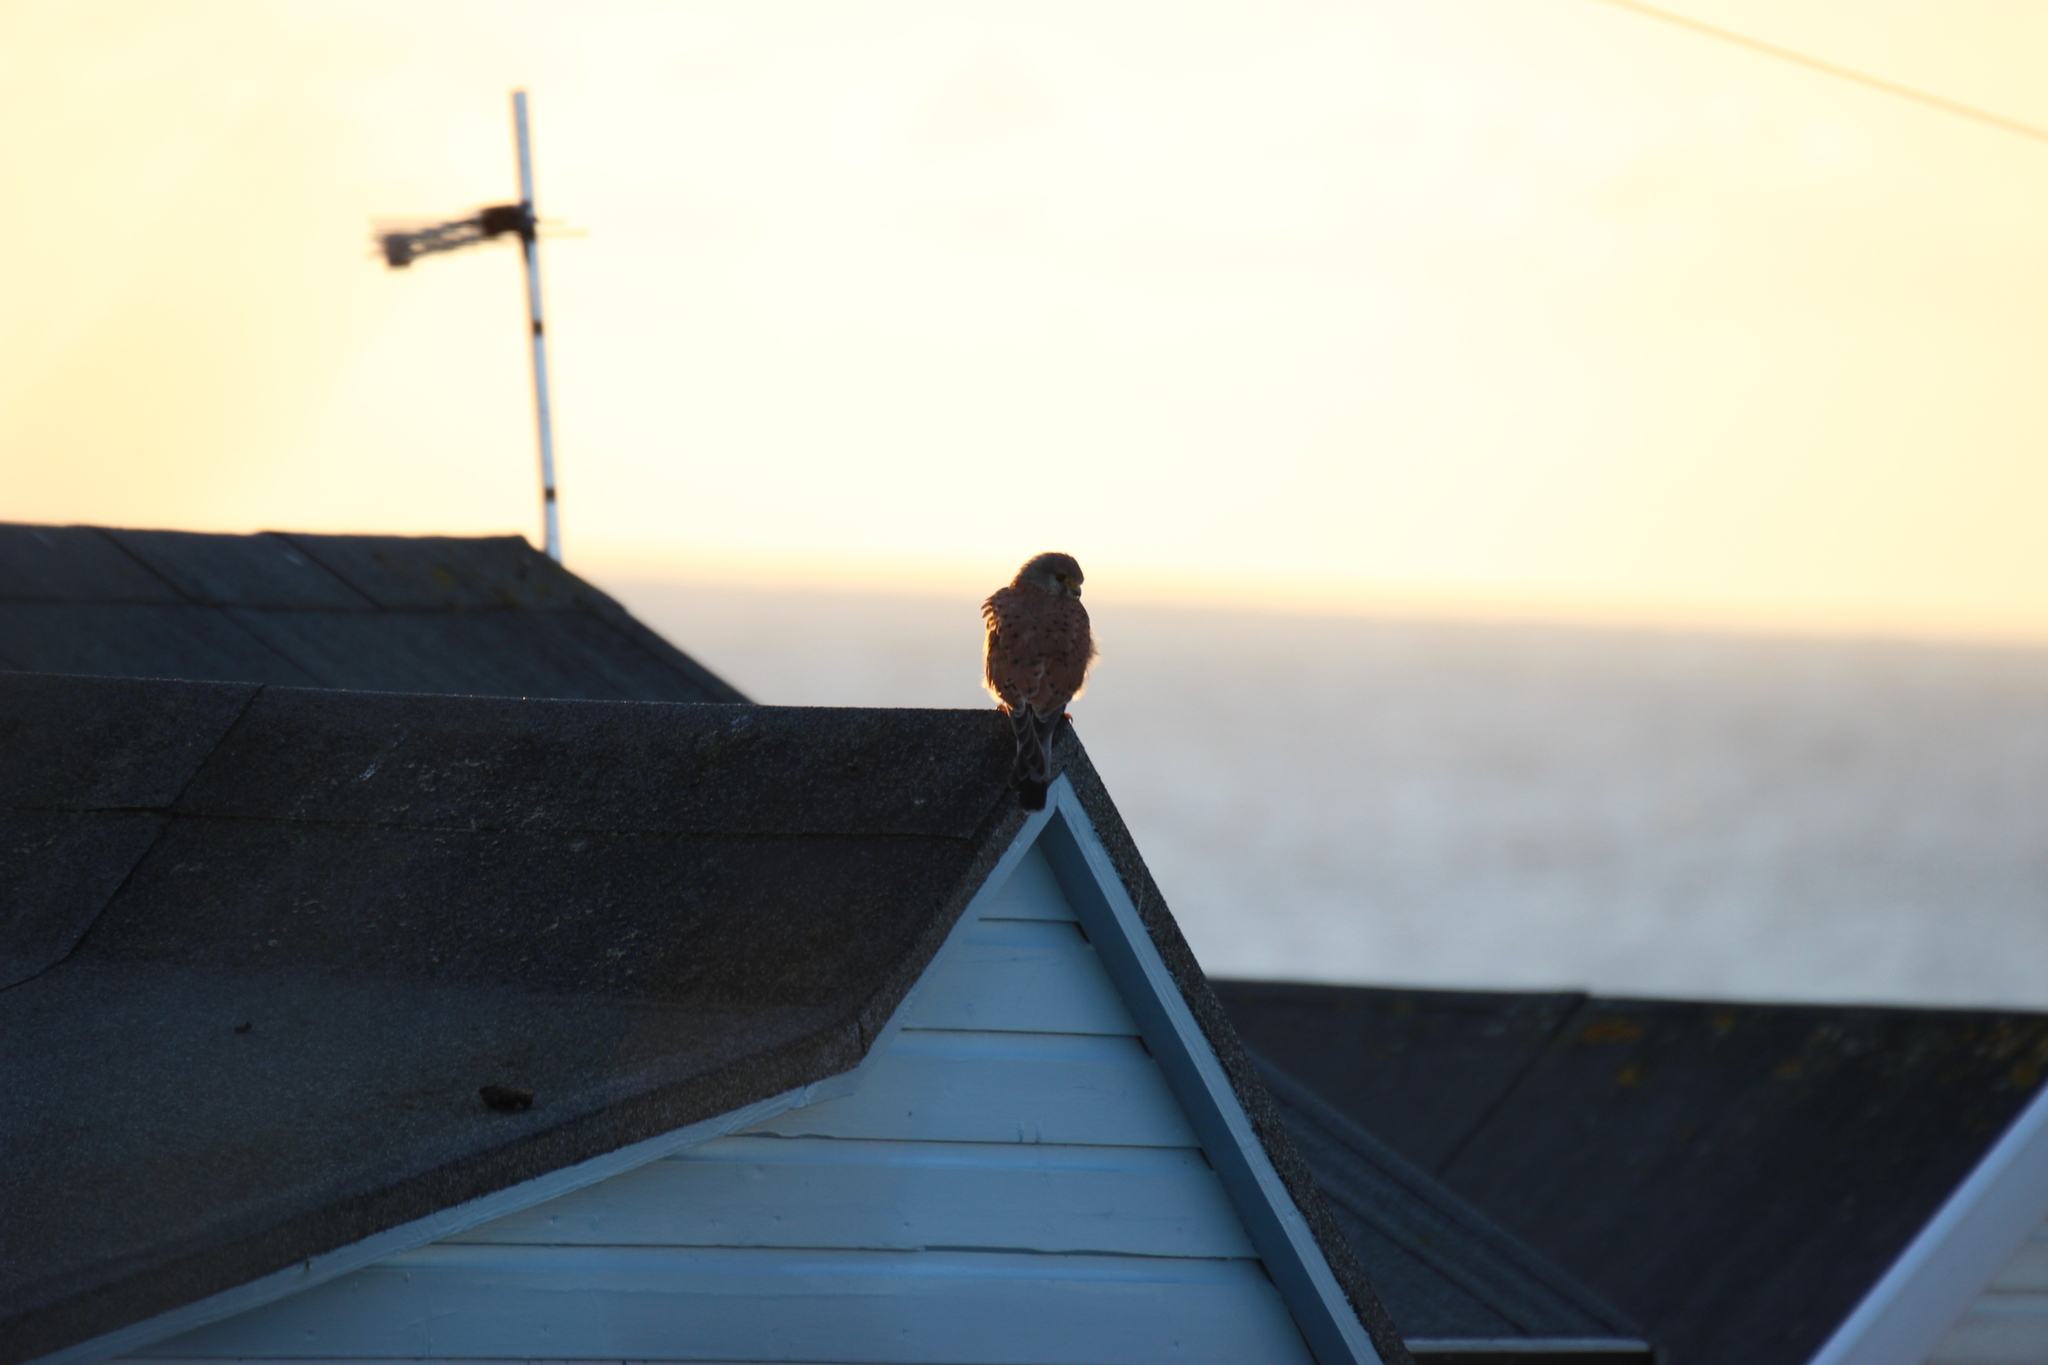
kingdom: Animalia
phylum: Chordata
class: Aves
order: Falconiformes
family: Falconidae
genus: Falco
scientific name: Falco tinnunculus
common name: Common kestrel
